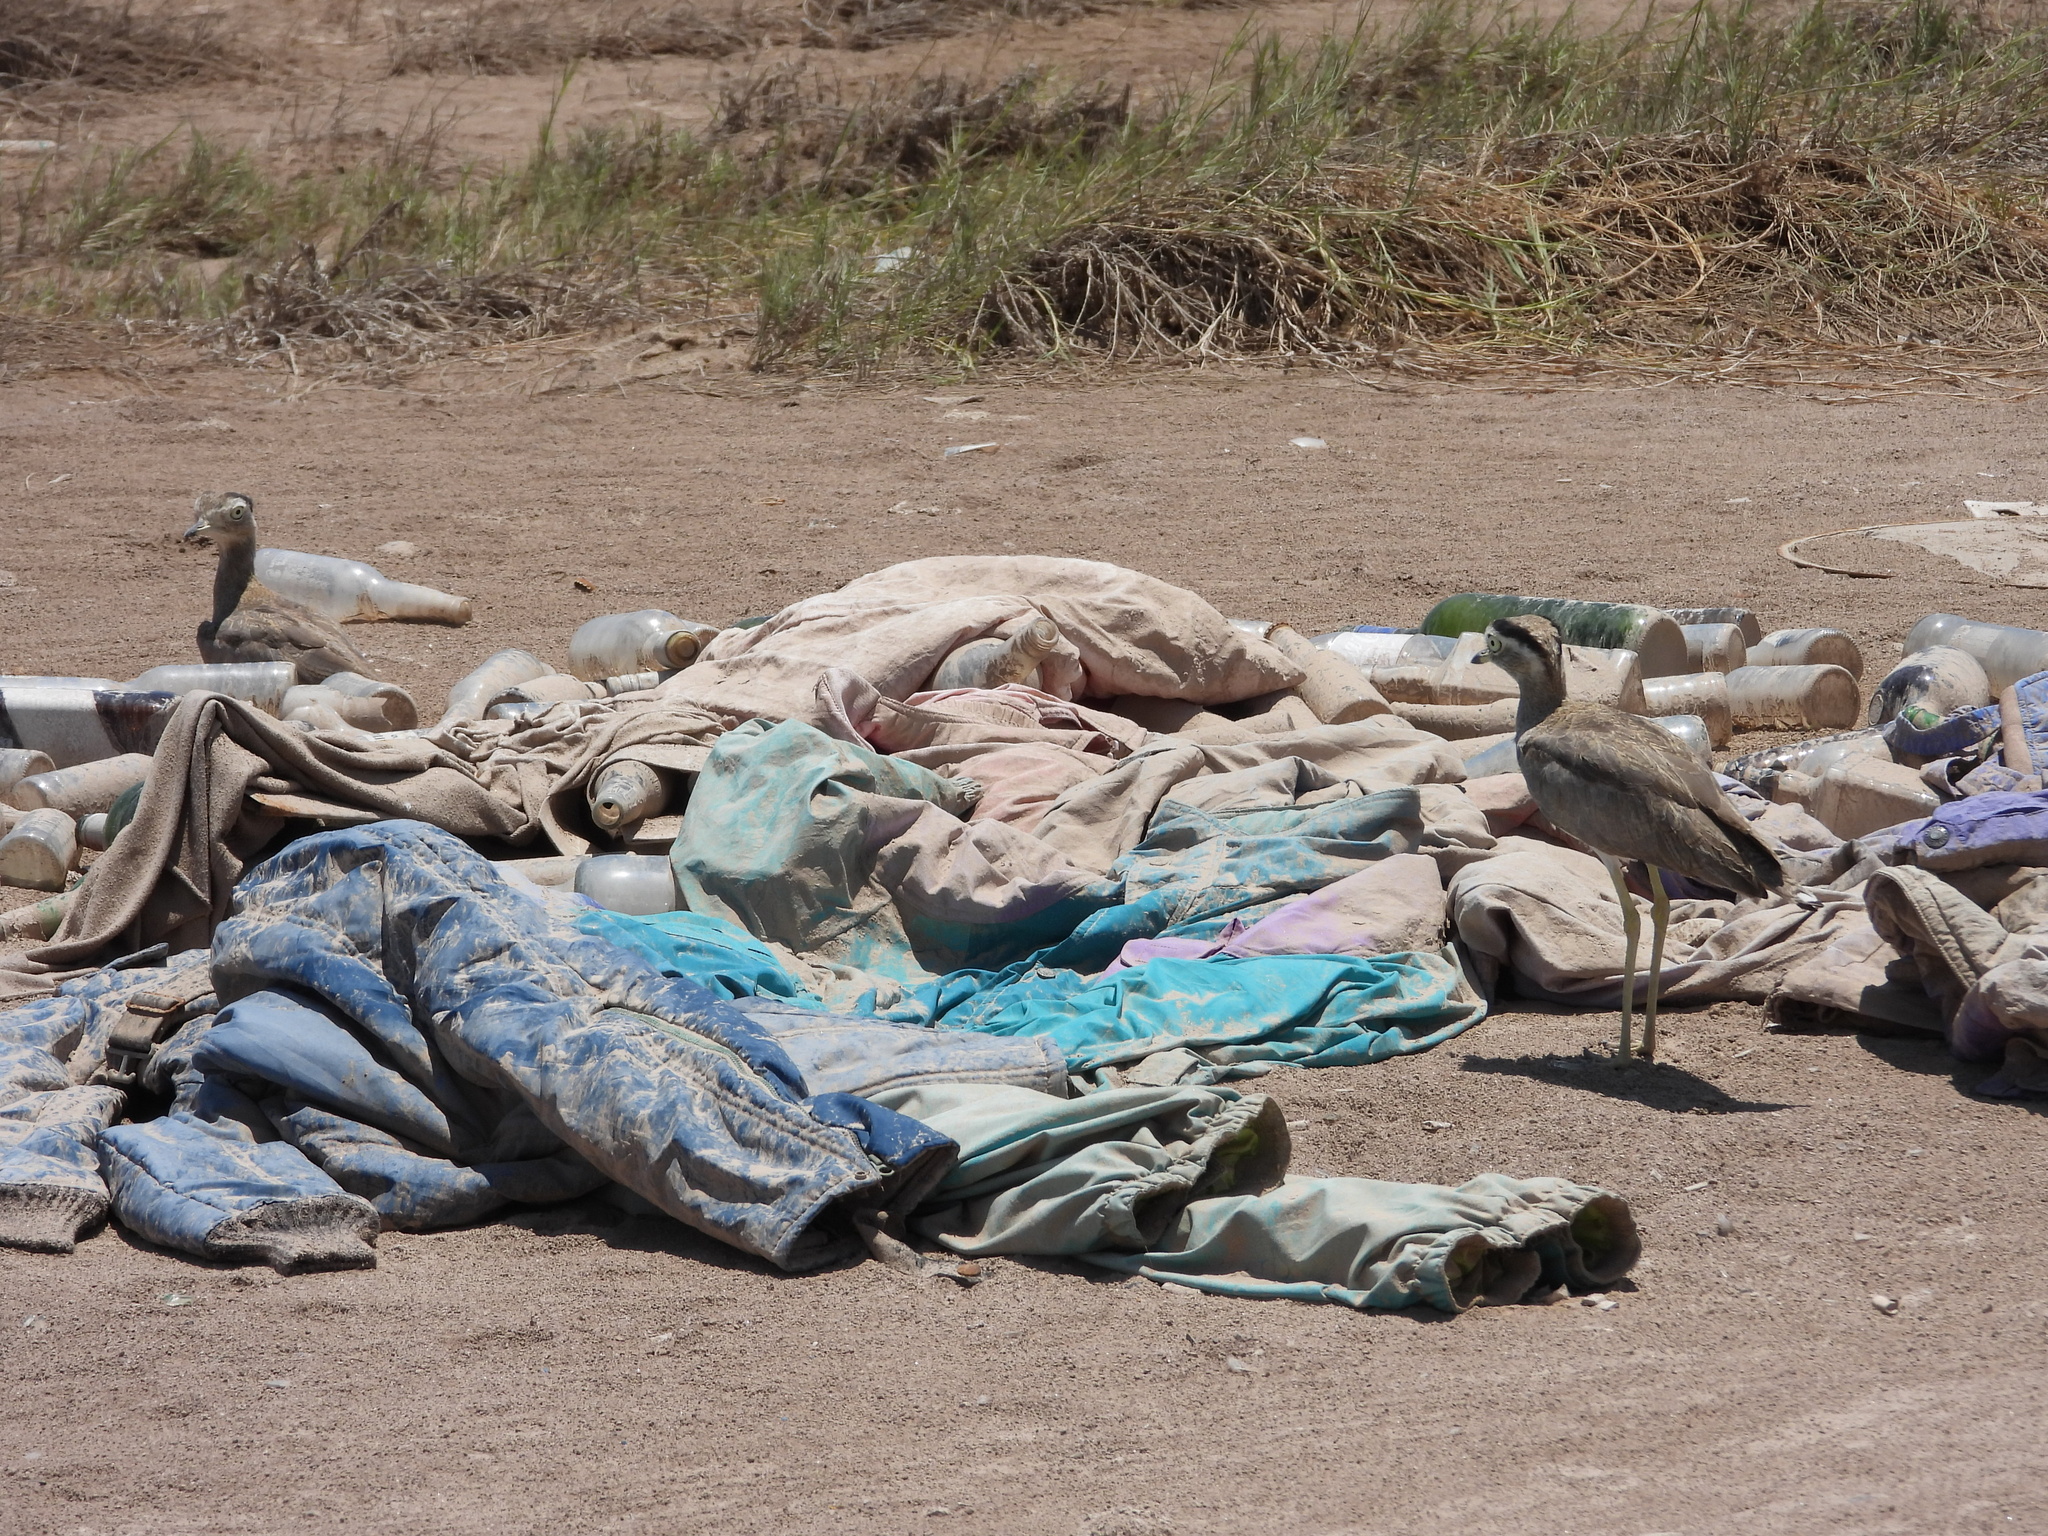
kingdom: Animalia
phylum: Chordata
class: Aves
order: Charadriiformes
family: Burhinidae
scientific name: Burhinidae
